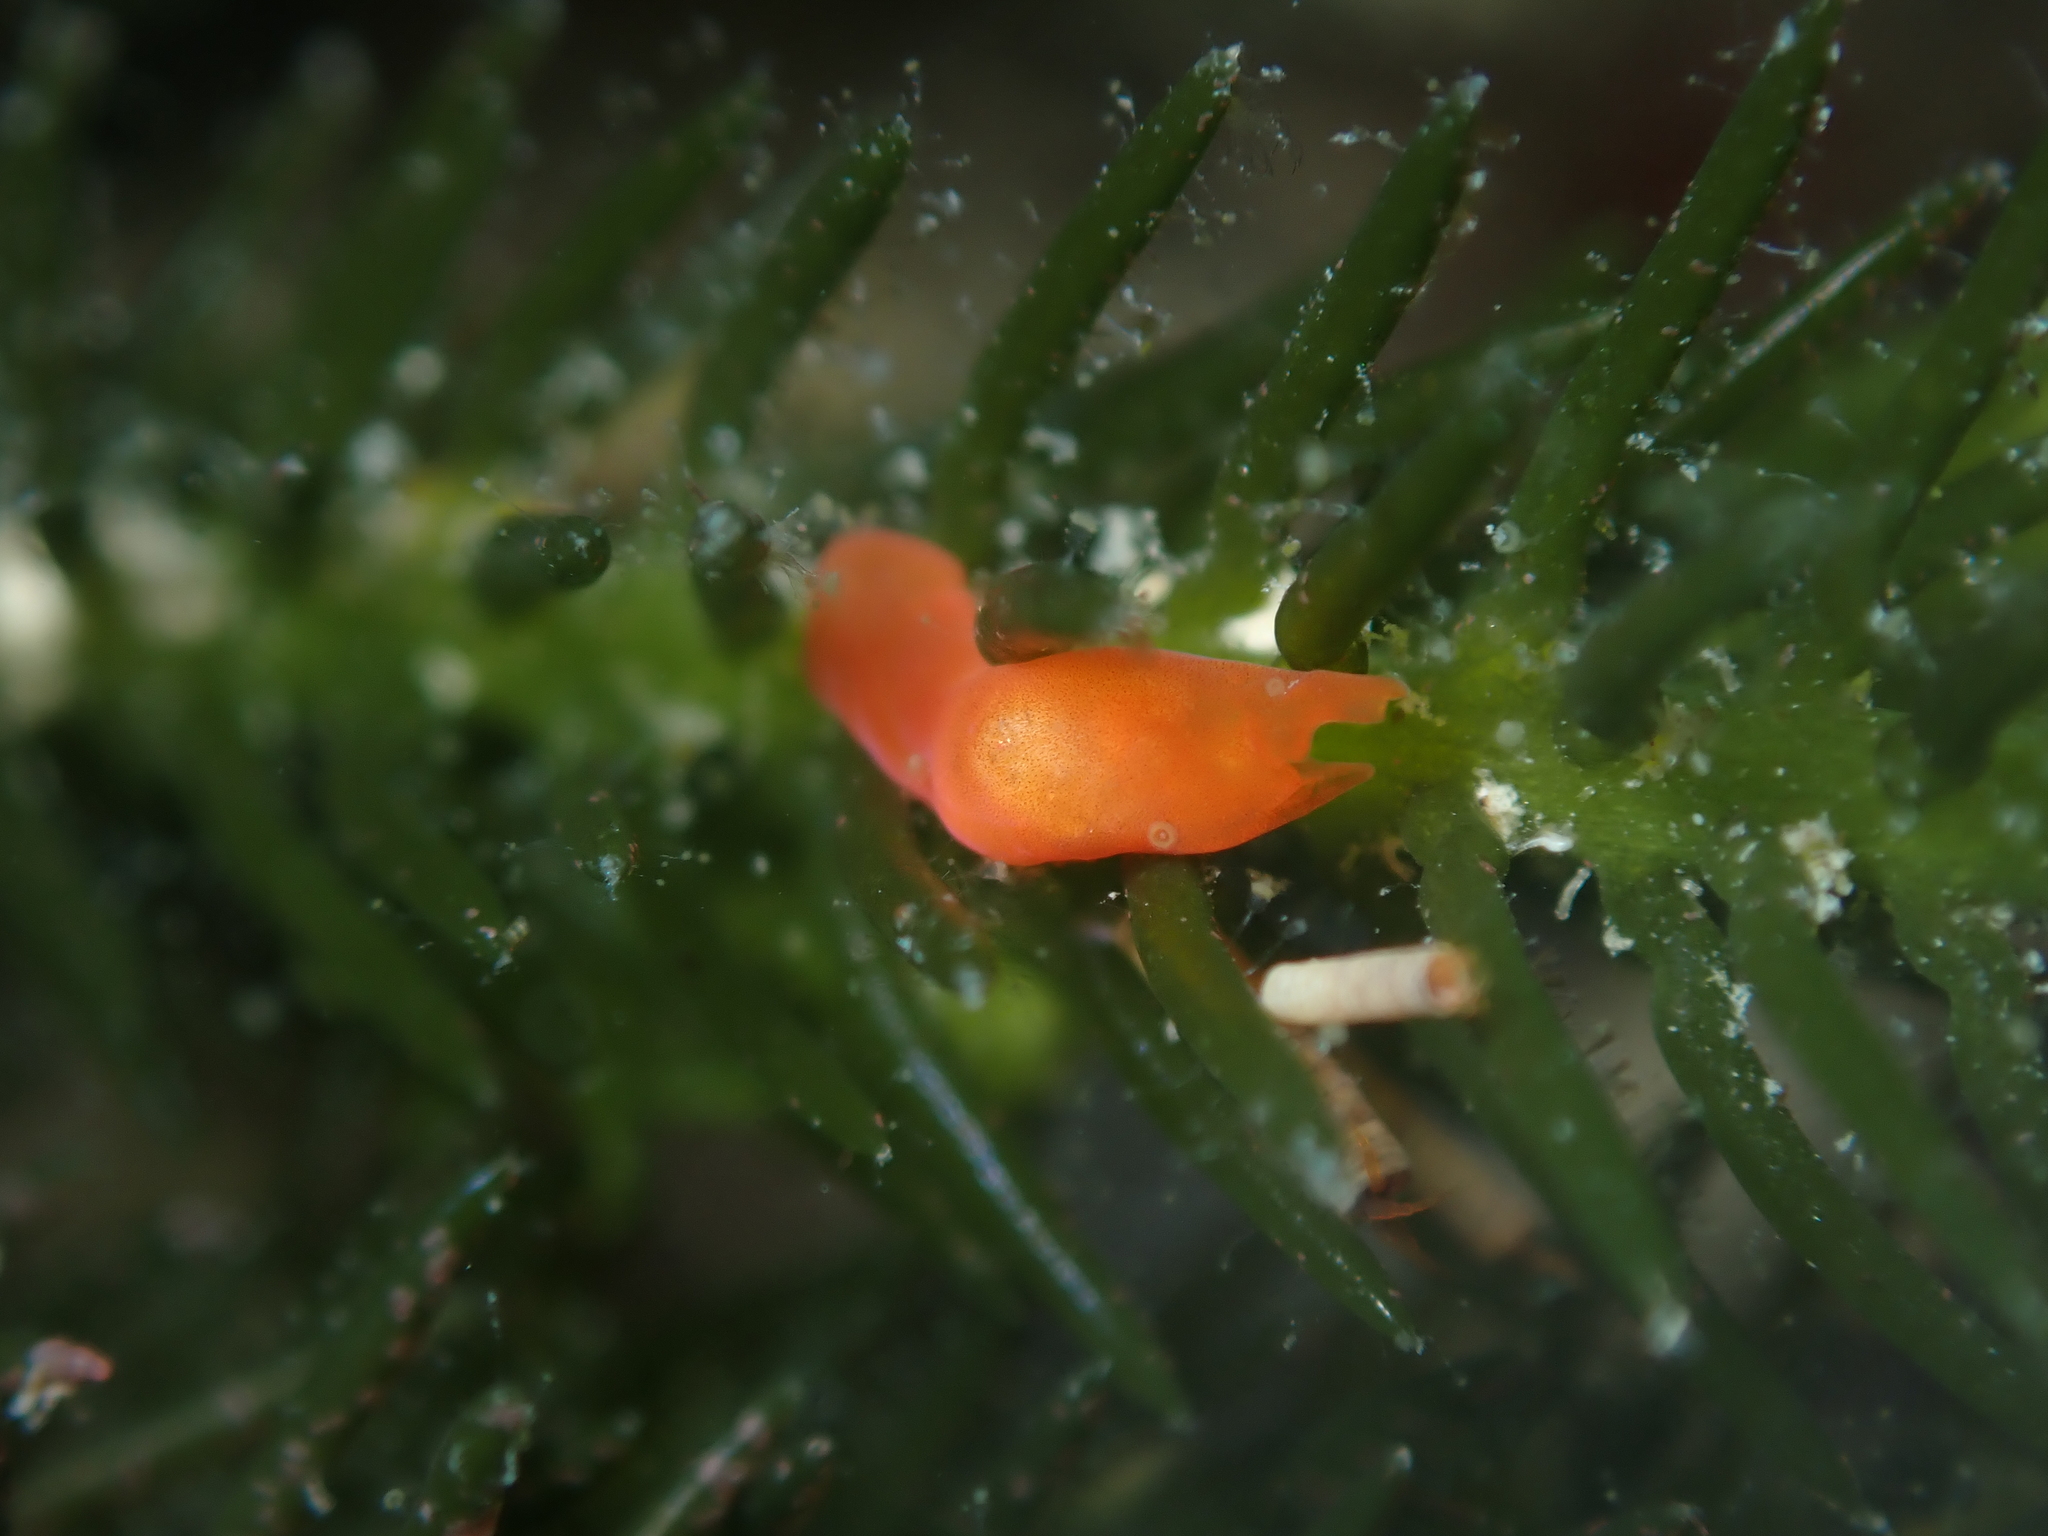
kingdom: Animalia
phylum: Xenacoelomorpha
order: Acoela
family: Convolutidae
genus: Polychoerus
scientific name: Polychoerus gordoni
